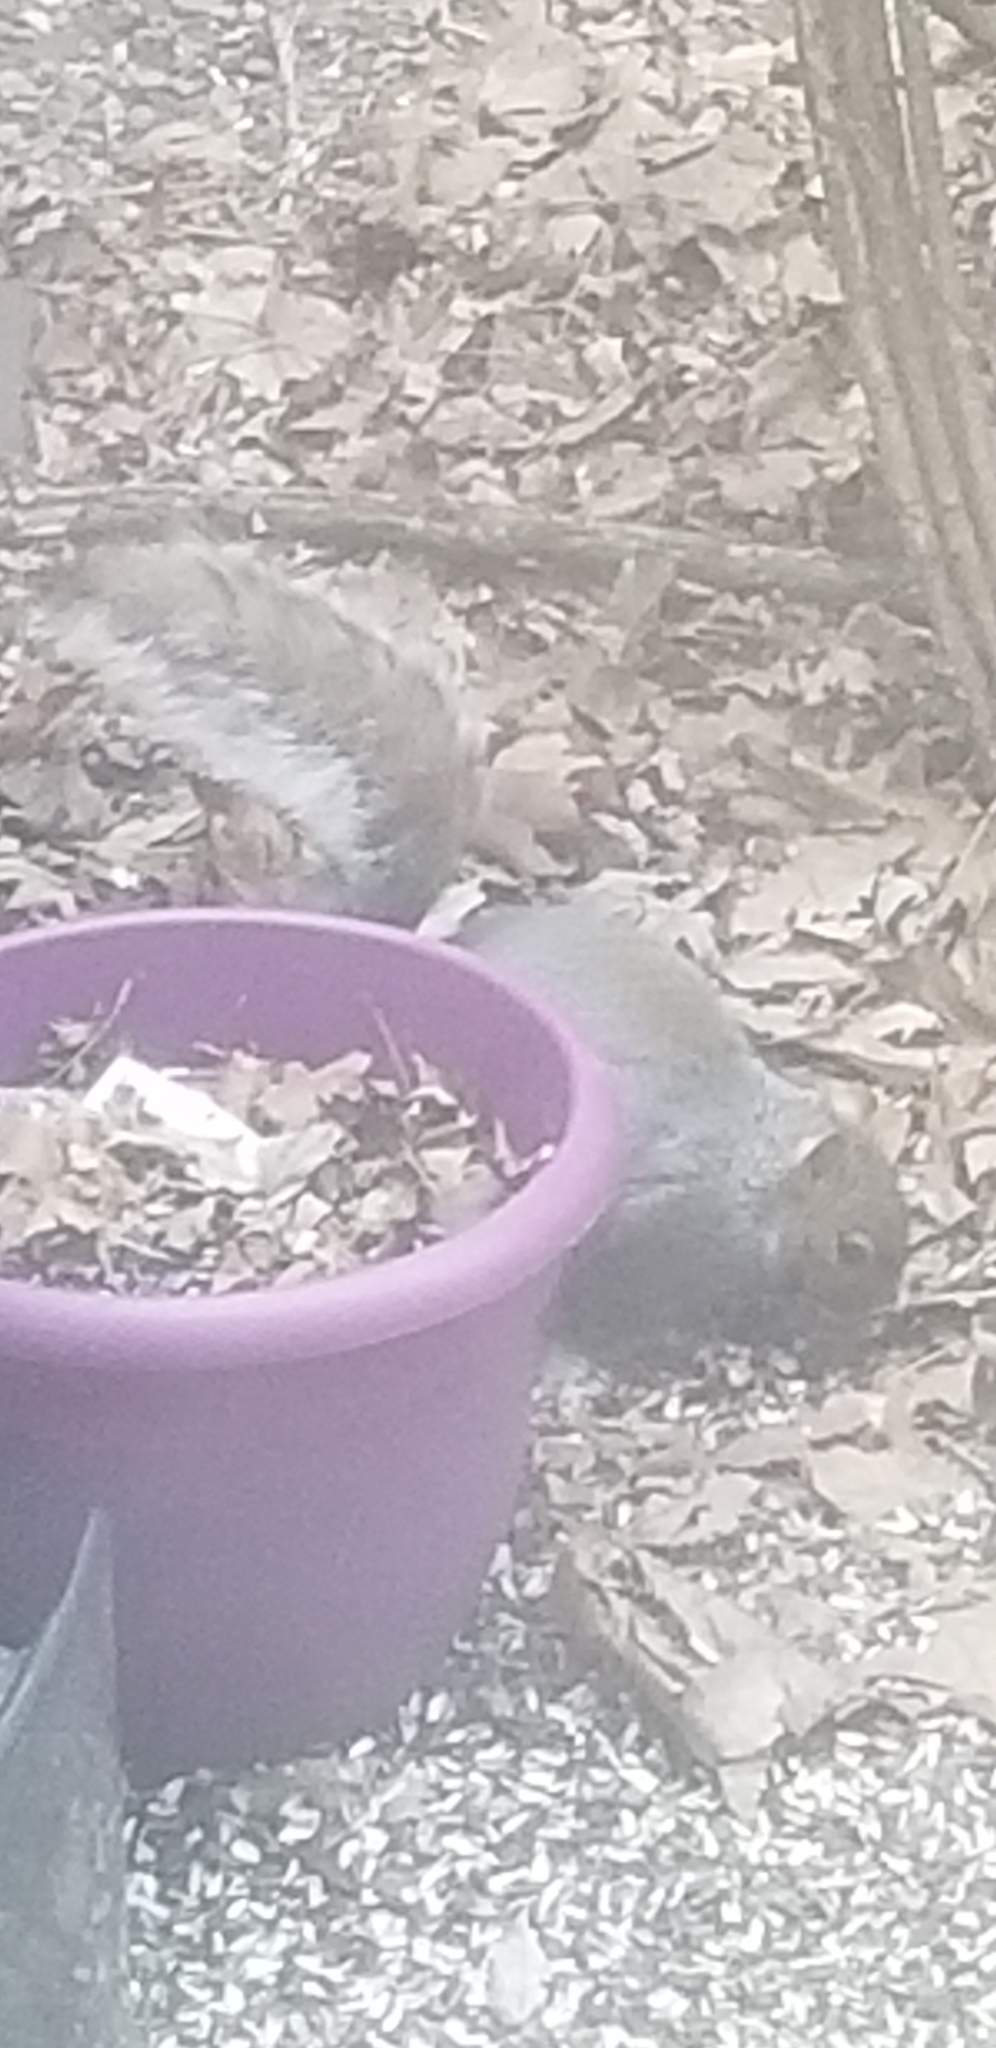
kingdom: Animalia
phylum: Chordata
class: Mammalia
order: Rodentia
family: Sciuridae
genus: Sciurus
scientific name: Sciurus carolinensis
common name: Eastern gray squirrel
